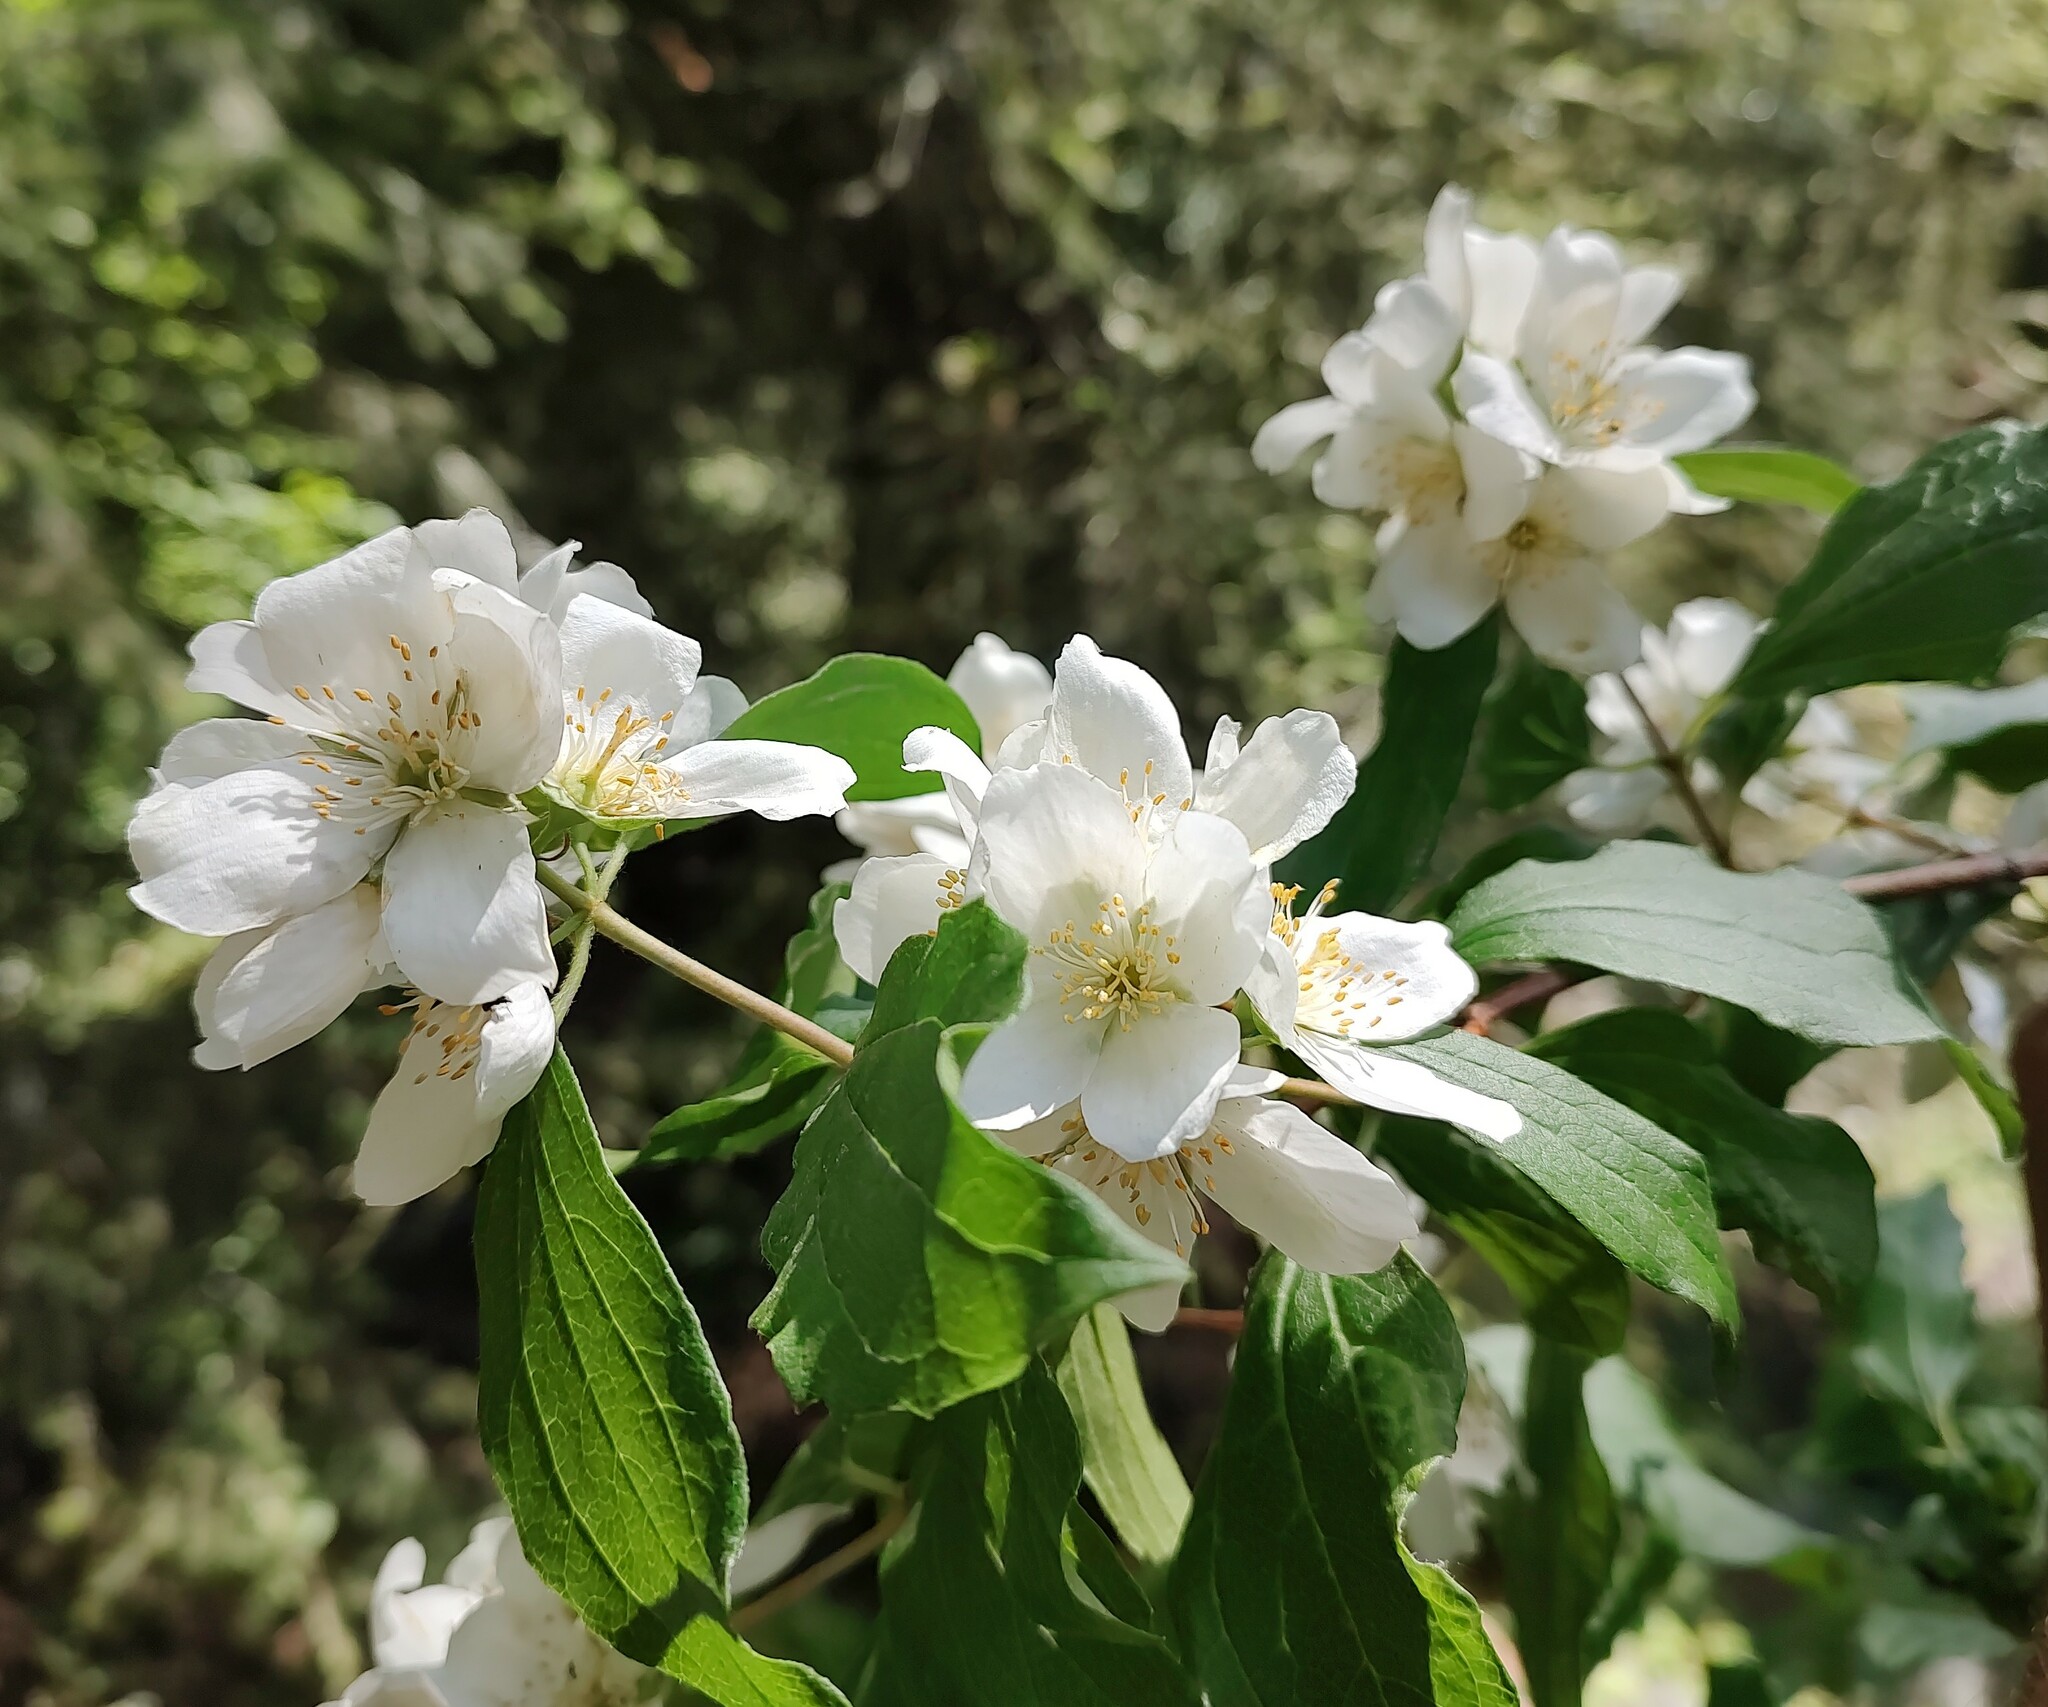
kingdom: Plantae
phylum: Tracheophyta
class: Magnoliopsida
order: Cornales
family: Hydrangeaceae
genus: Philadelphus
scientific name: Philadelphus lewisii
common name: Lewis's mock orange
